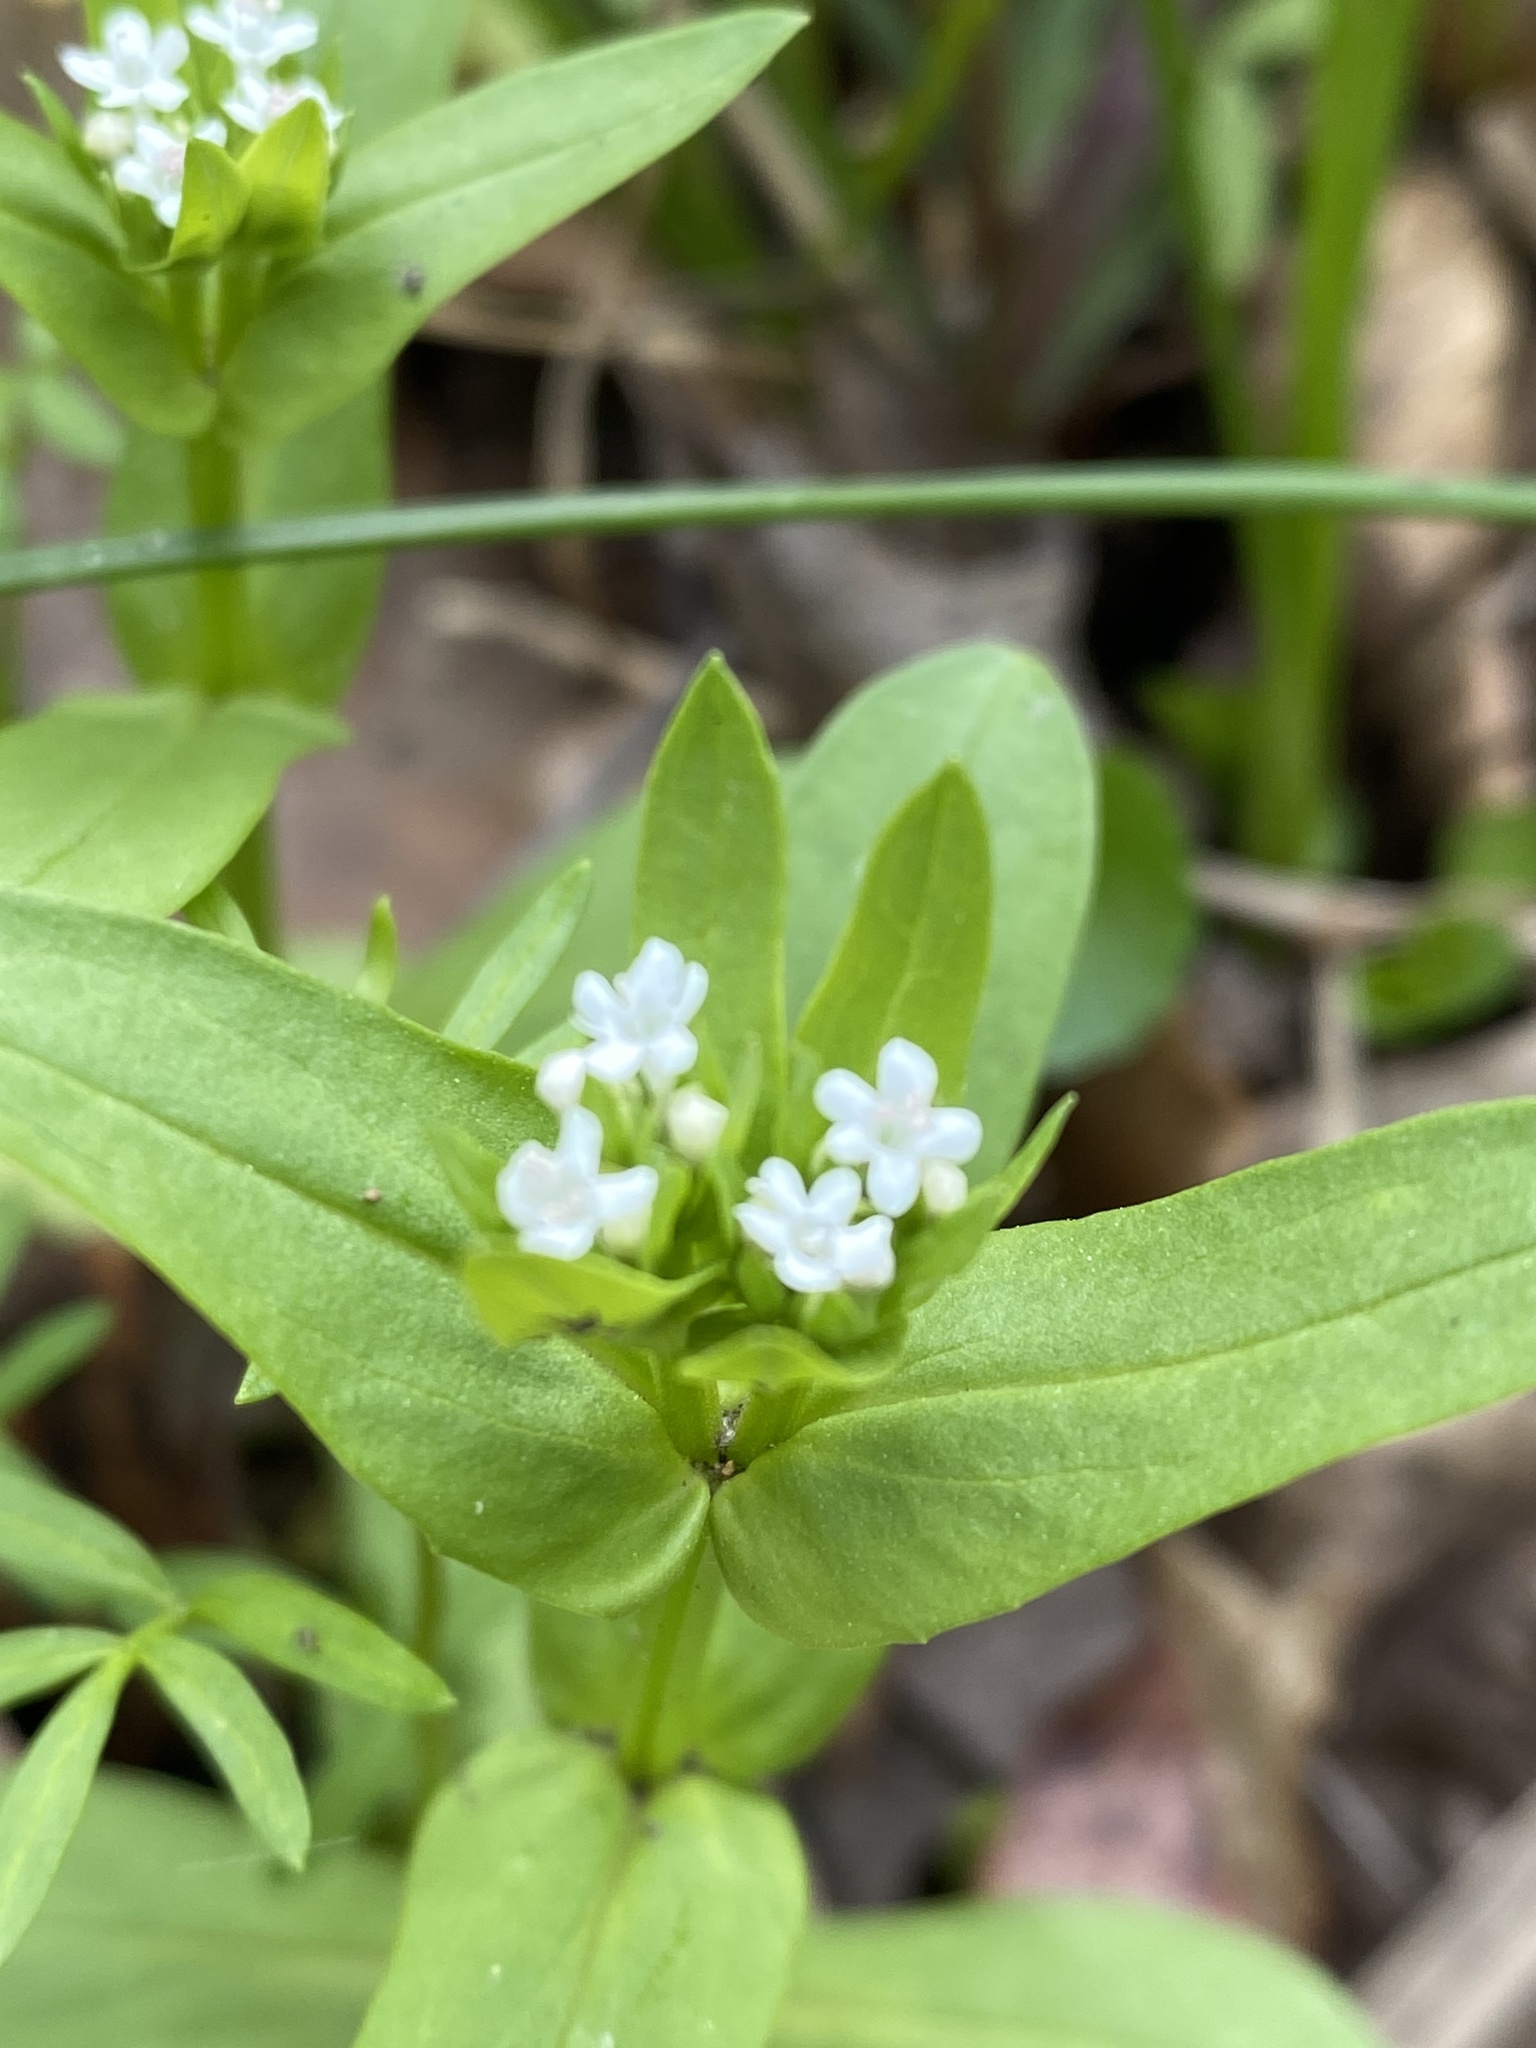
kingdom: Plantae
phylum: Tracheophyta
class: Magnoliopsida
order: Dipsacales
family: Caprifoliaceae
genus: Valerianella
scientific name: Valerianella chenopodiifolia
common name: Goosefoot cornsalad
